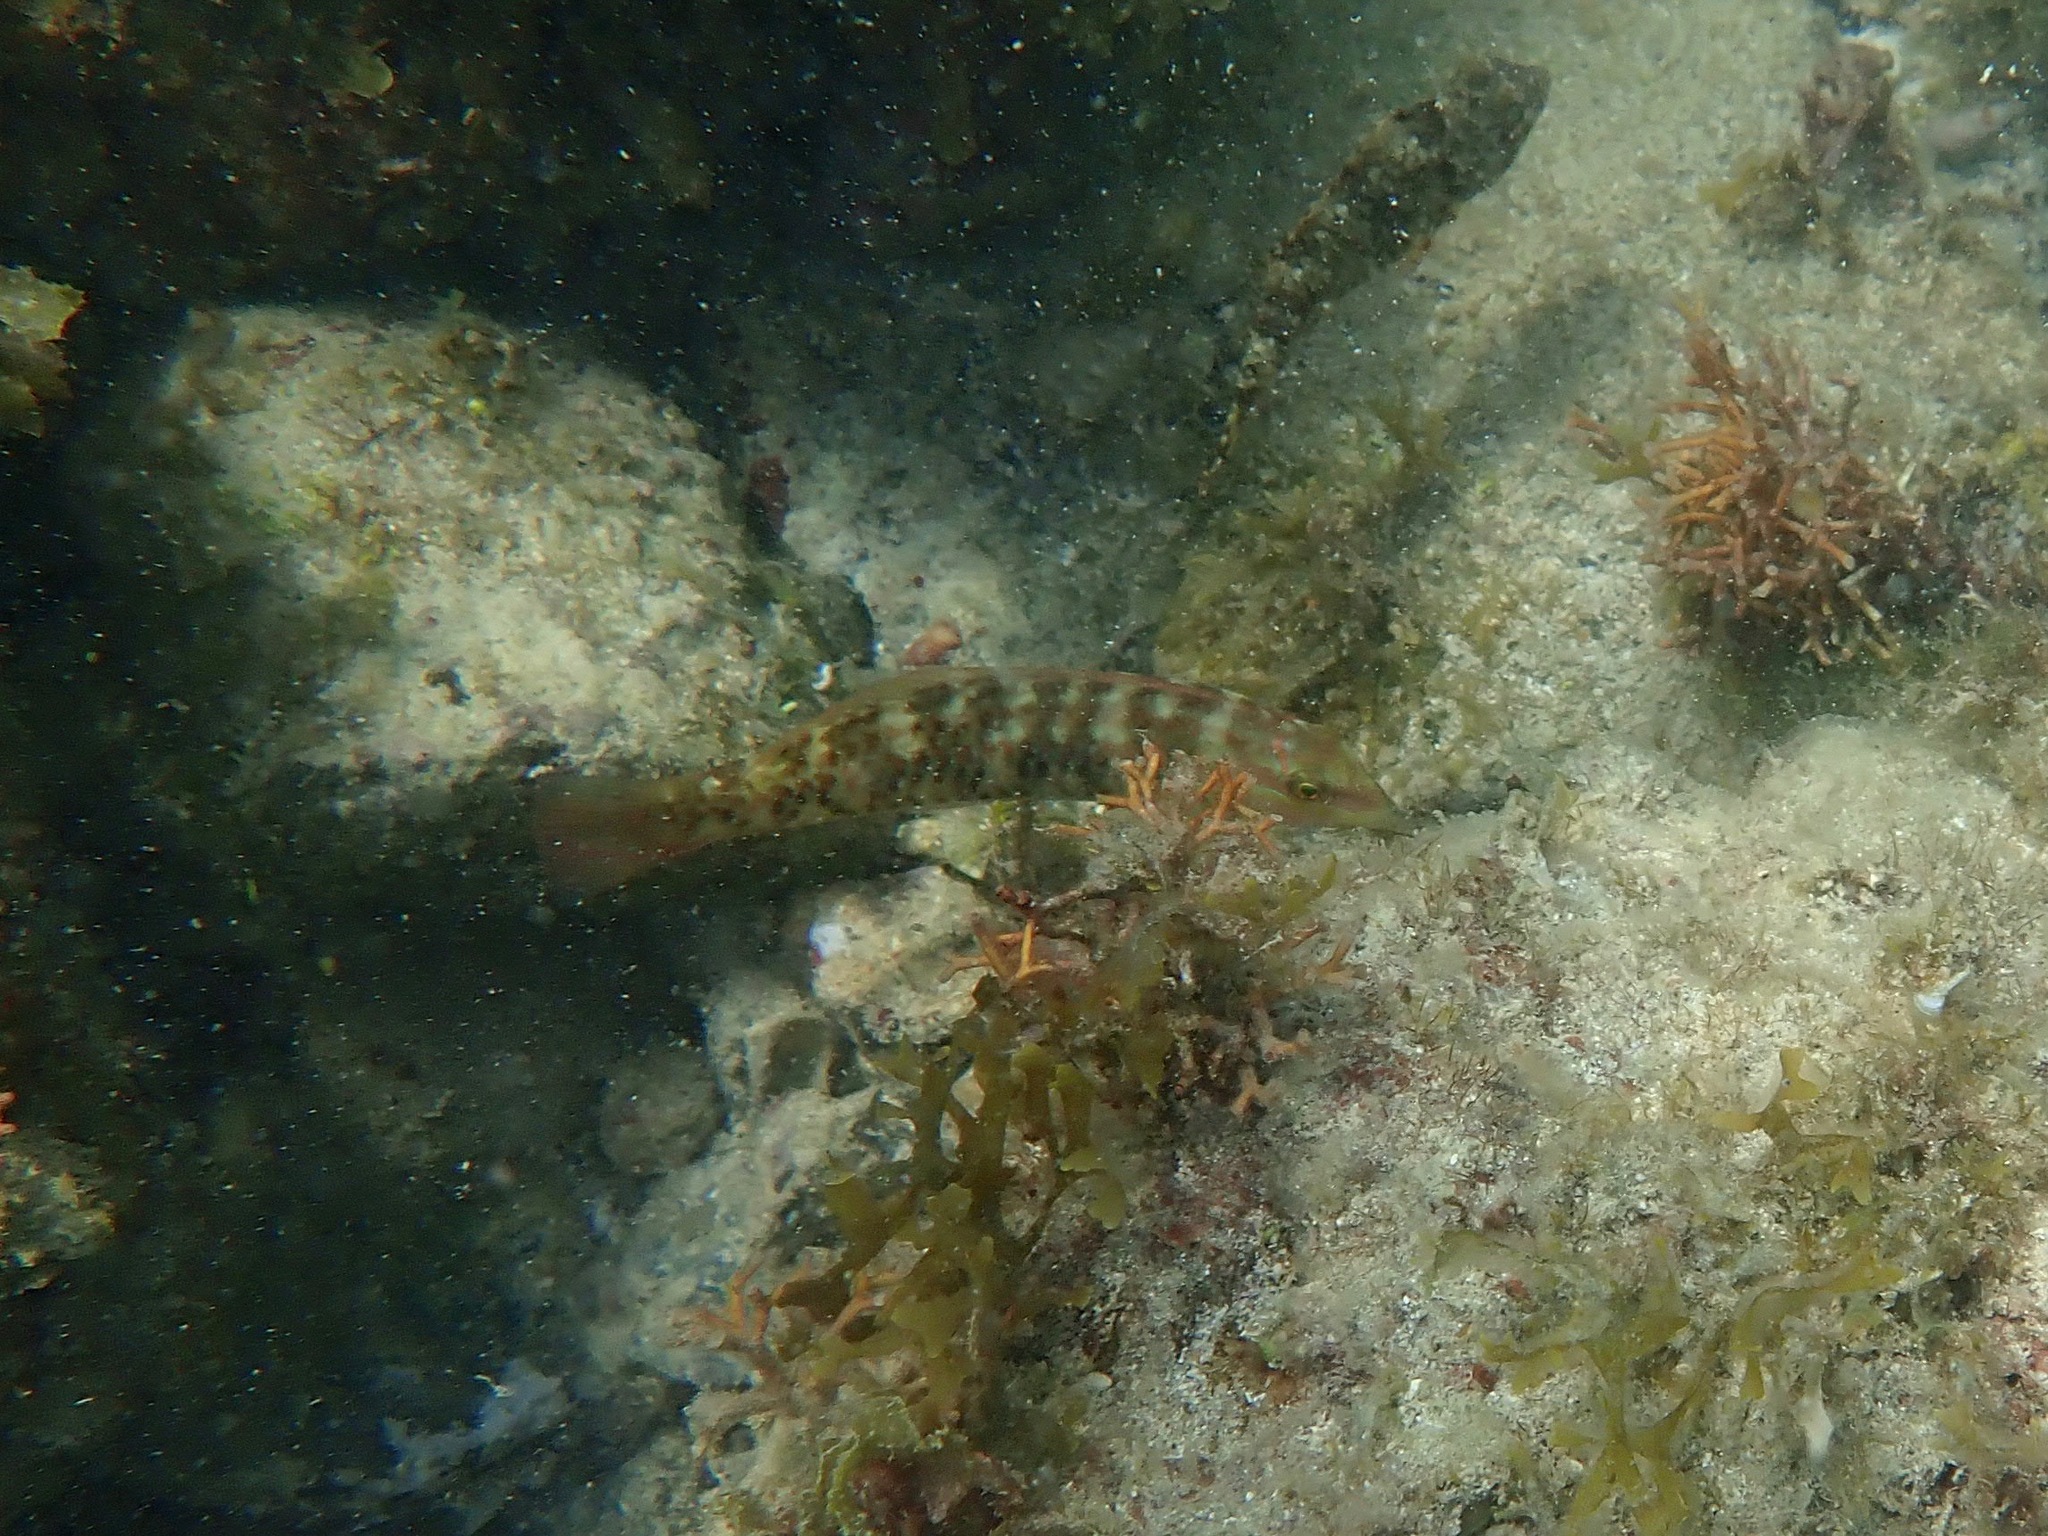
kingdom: Animalia
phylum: Chordata
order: Perciformes
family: Labridae
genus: Halichoeres
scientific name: Halichoeres bivittatus
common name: Slippery dick
